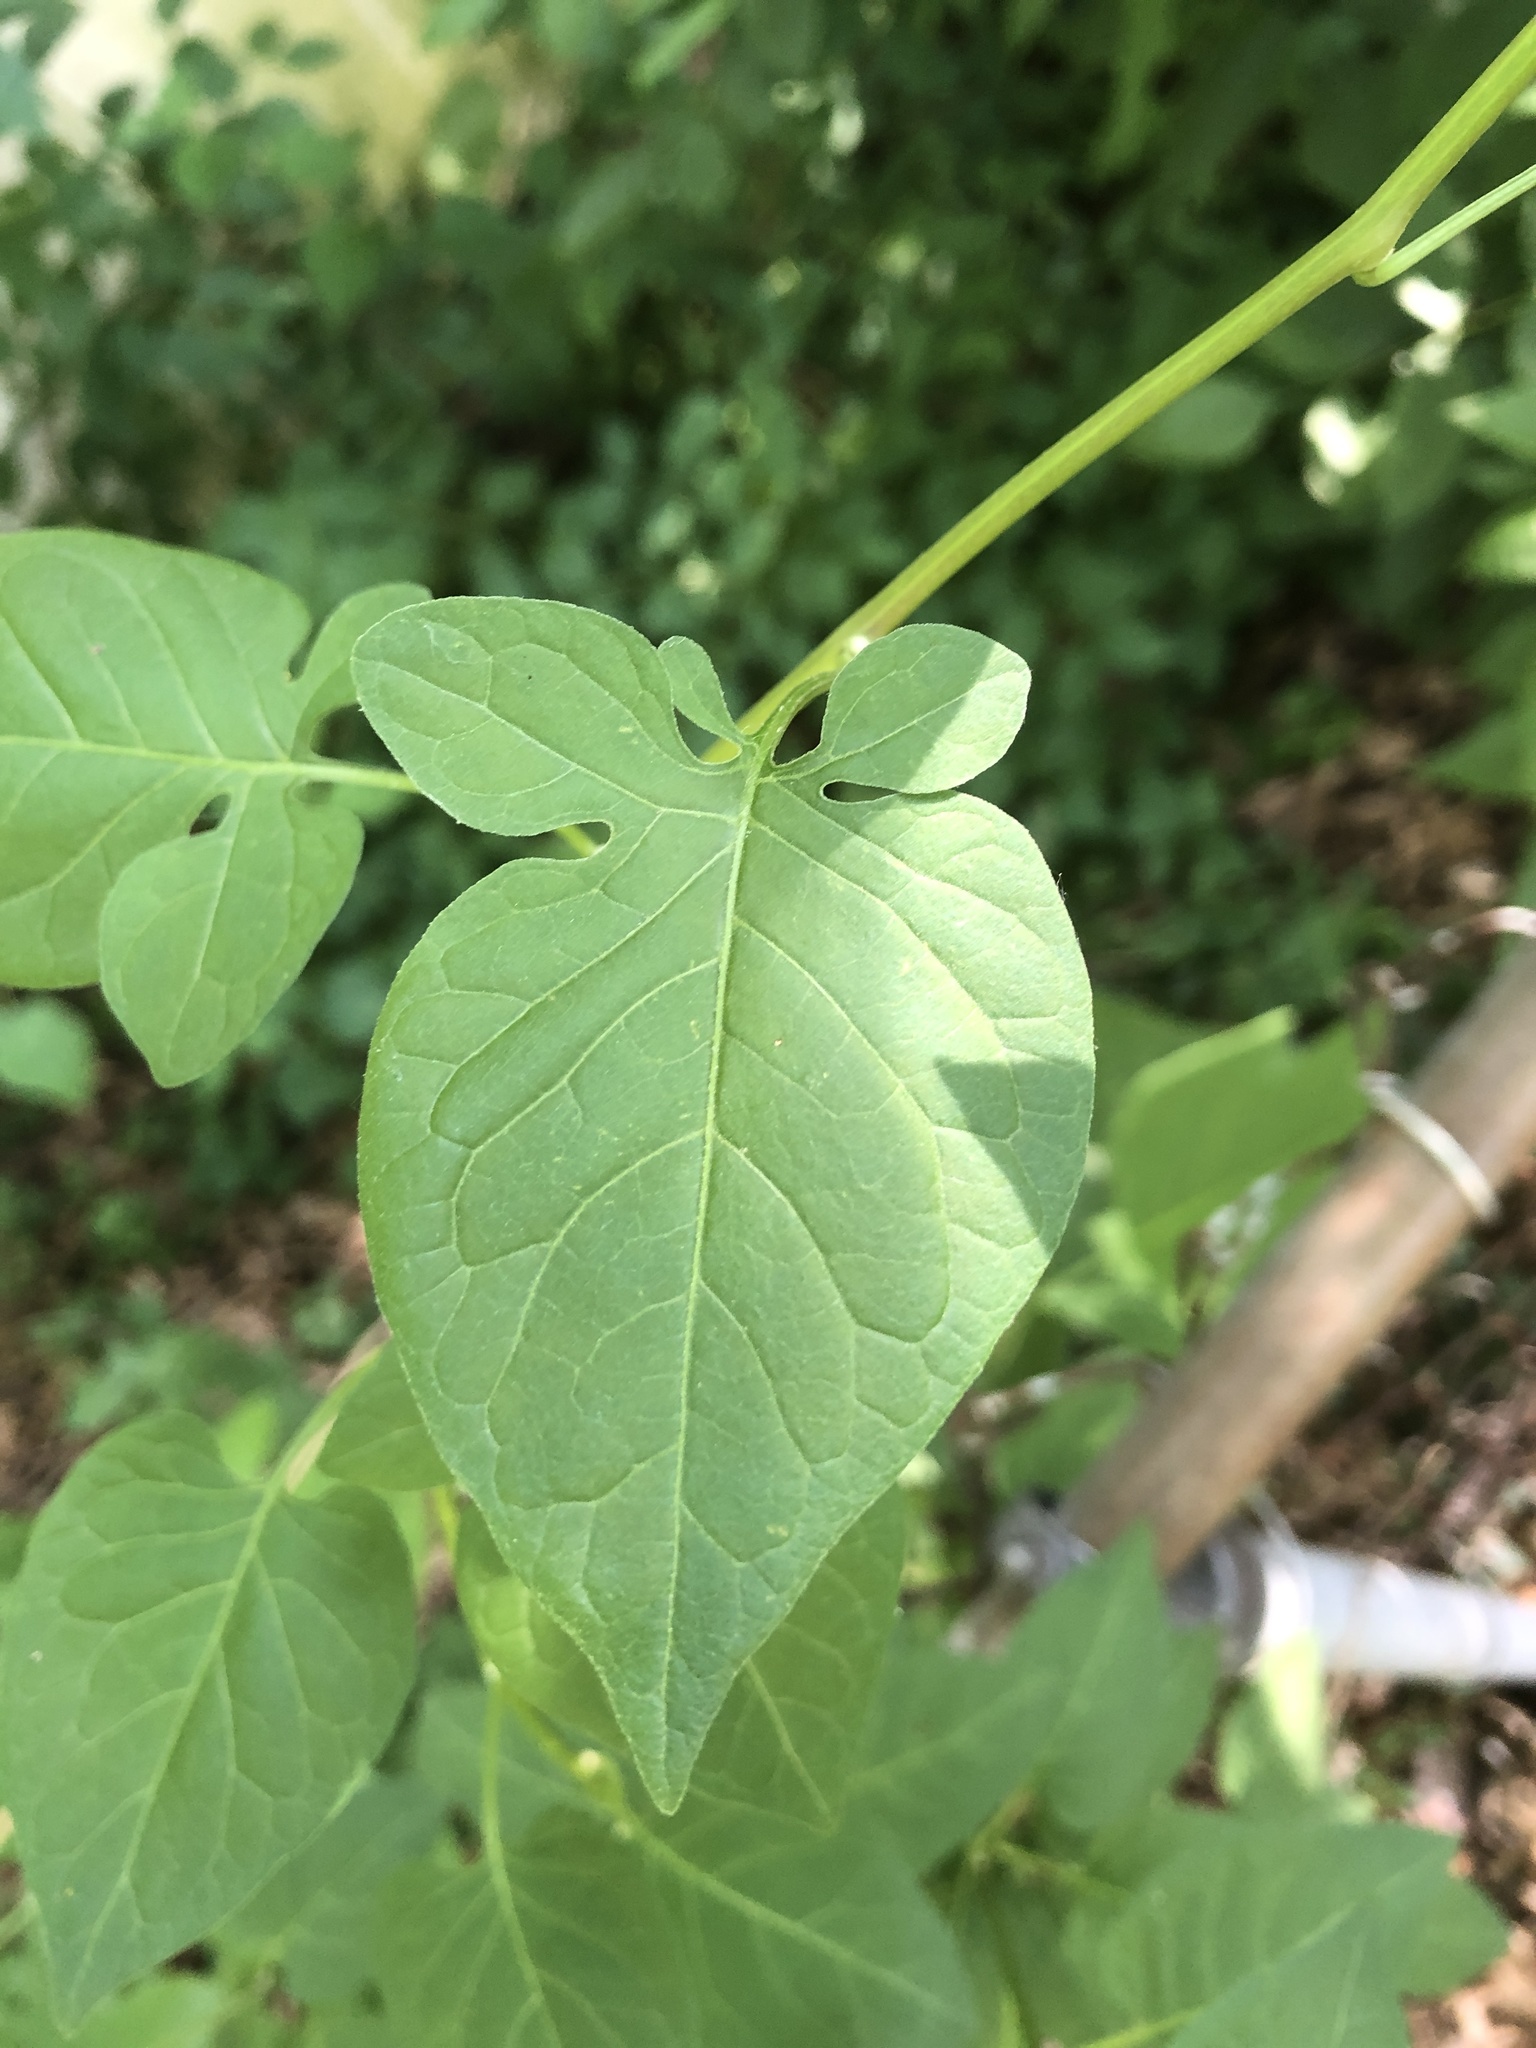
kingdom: Plantae
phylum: Tracheophyta
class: Magnoliopsida
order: Solanales
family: Solanaceae
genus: Solanum
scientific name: Solanum dulcamara
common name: Climbing nightshade
